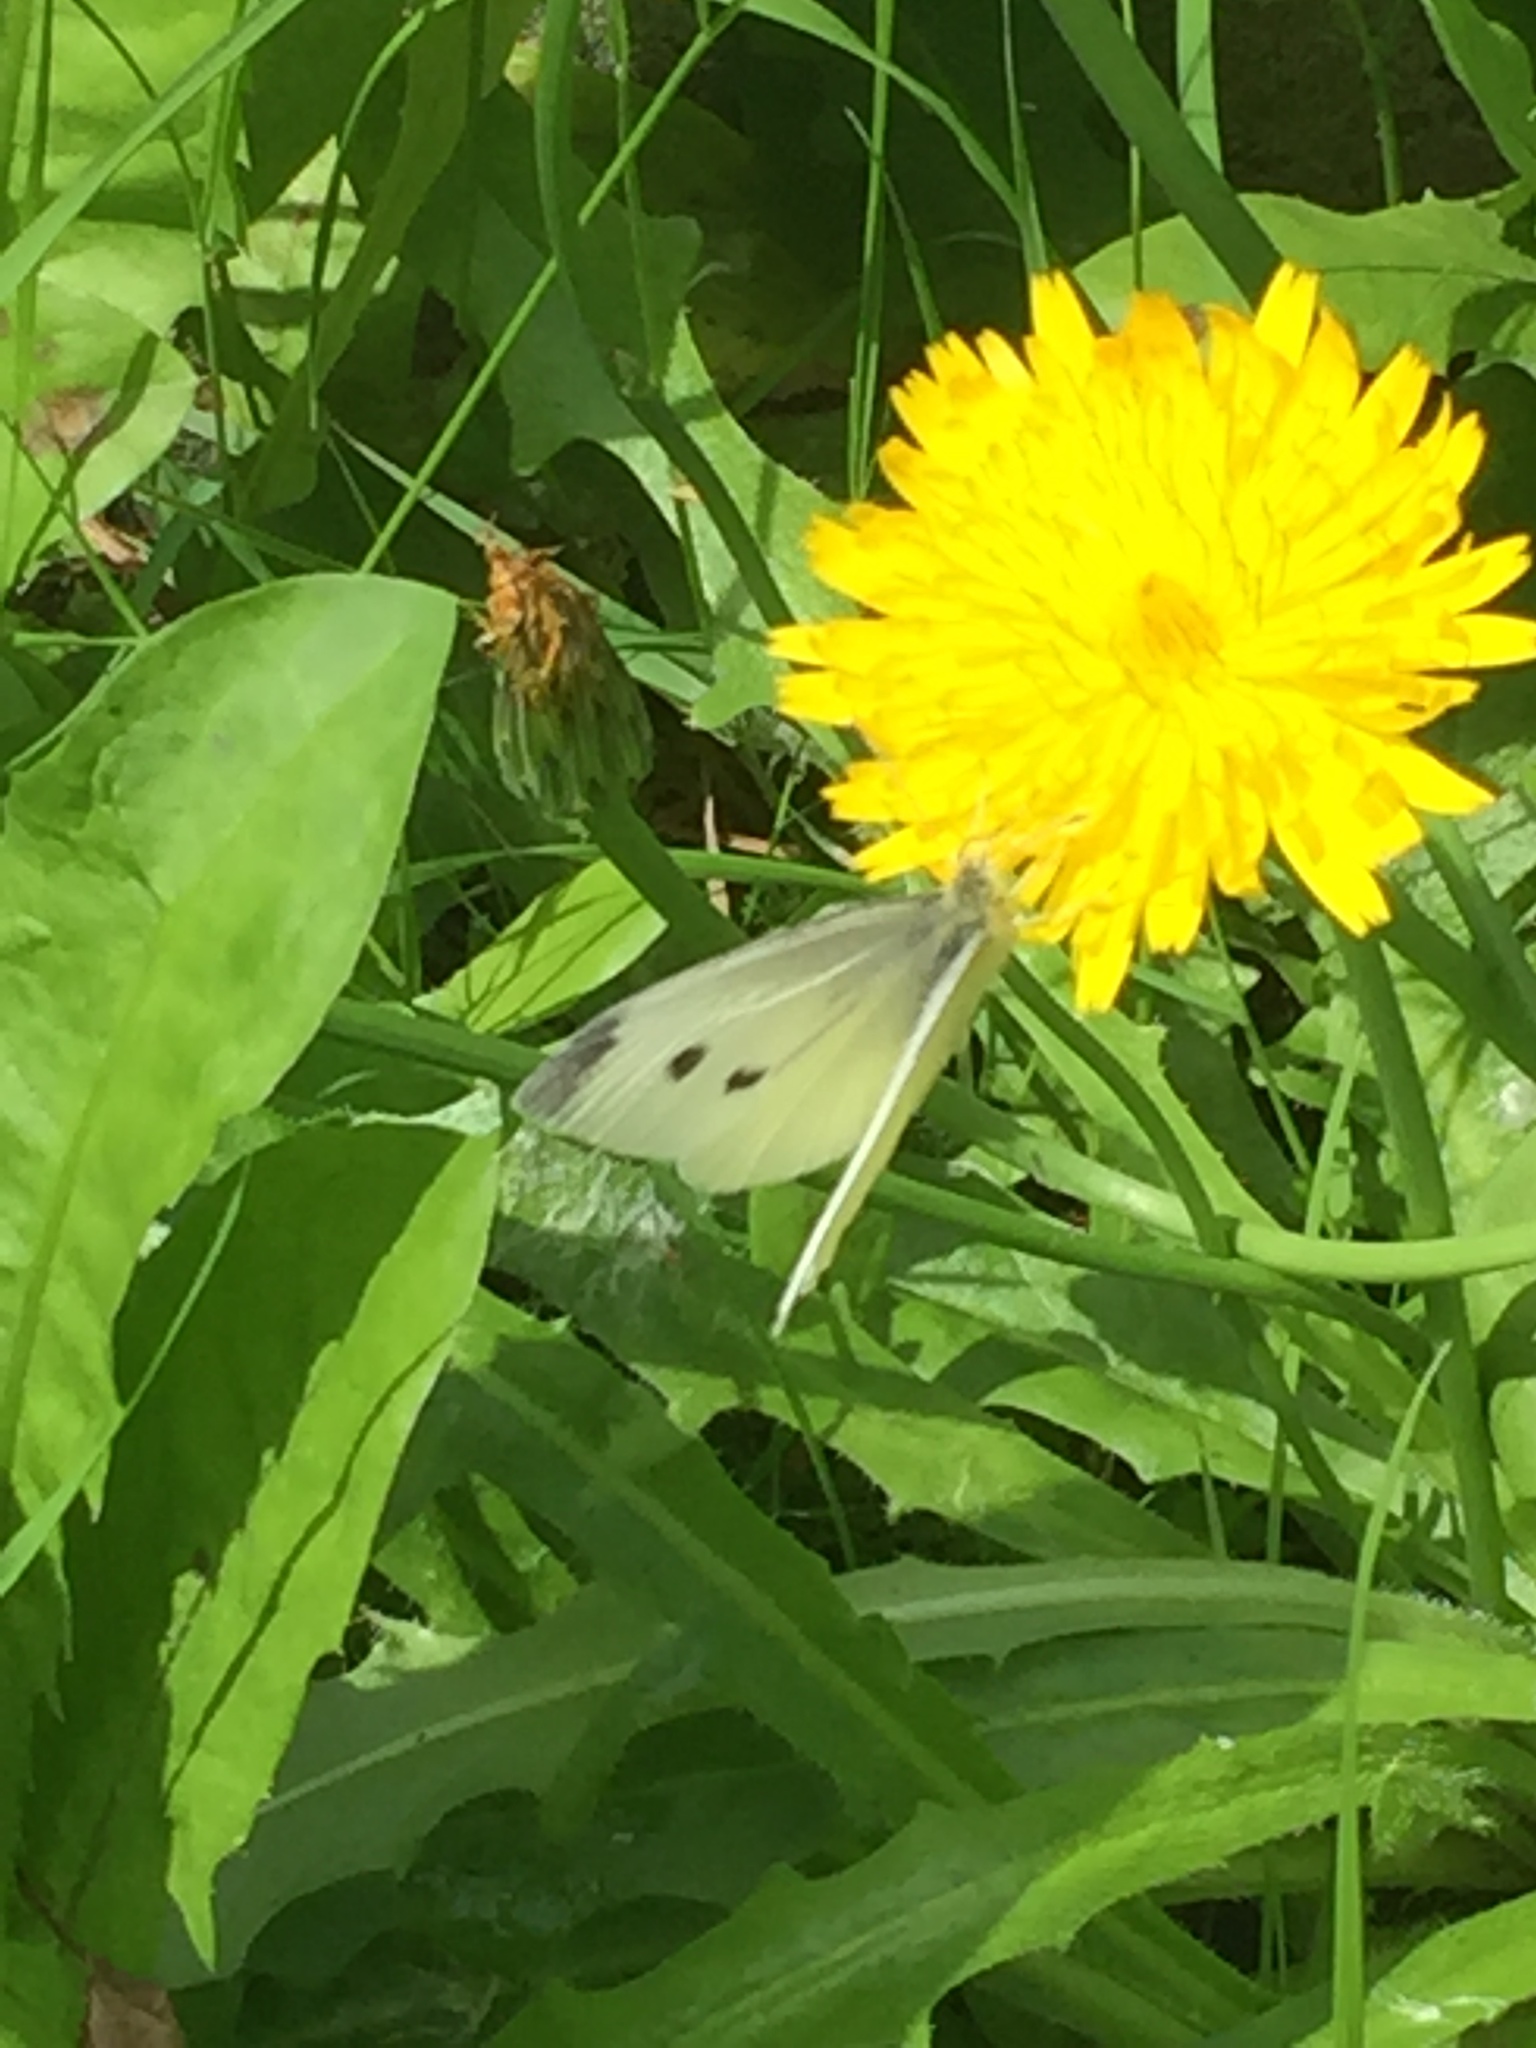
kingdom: Animalia
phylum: Arthropoda
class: Insecta
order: Lepidoptera
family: Pieridae
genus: Pieris
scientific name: Pieris rapae
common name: Small white
